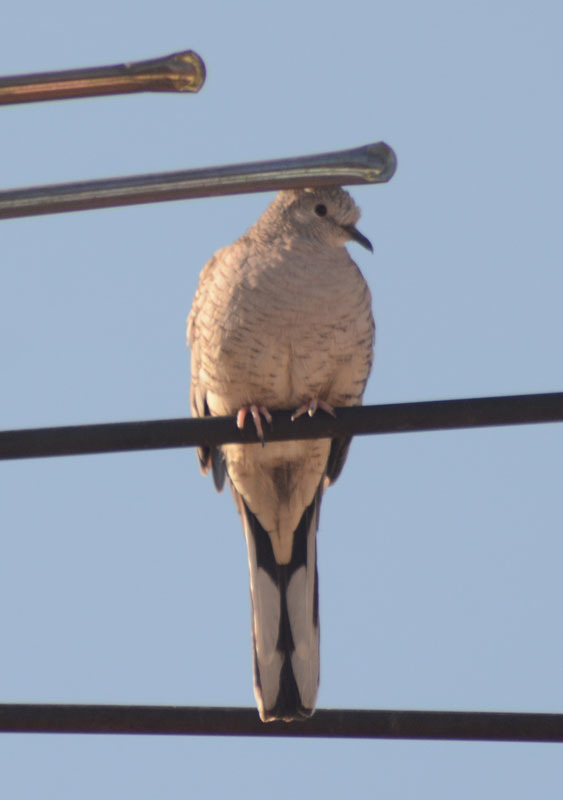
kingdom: Animalia
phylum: Chordata
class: Aves
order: Columbiformes
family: Columbidae
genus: Columbina
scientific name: Columbina inca
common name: Inca dove
